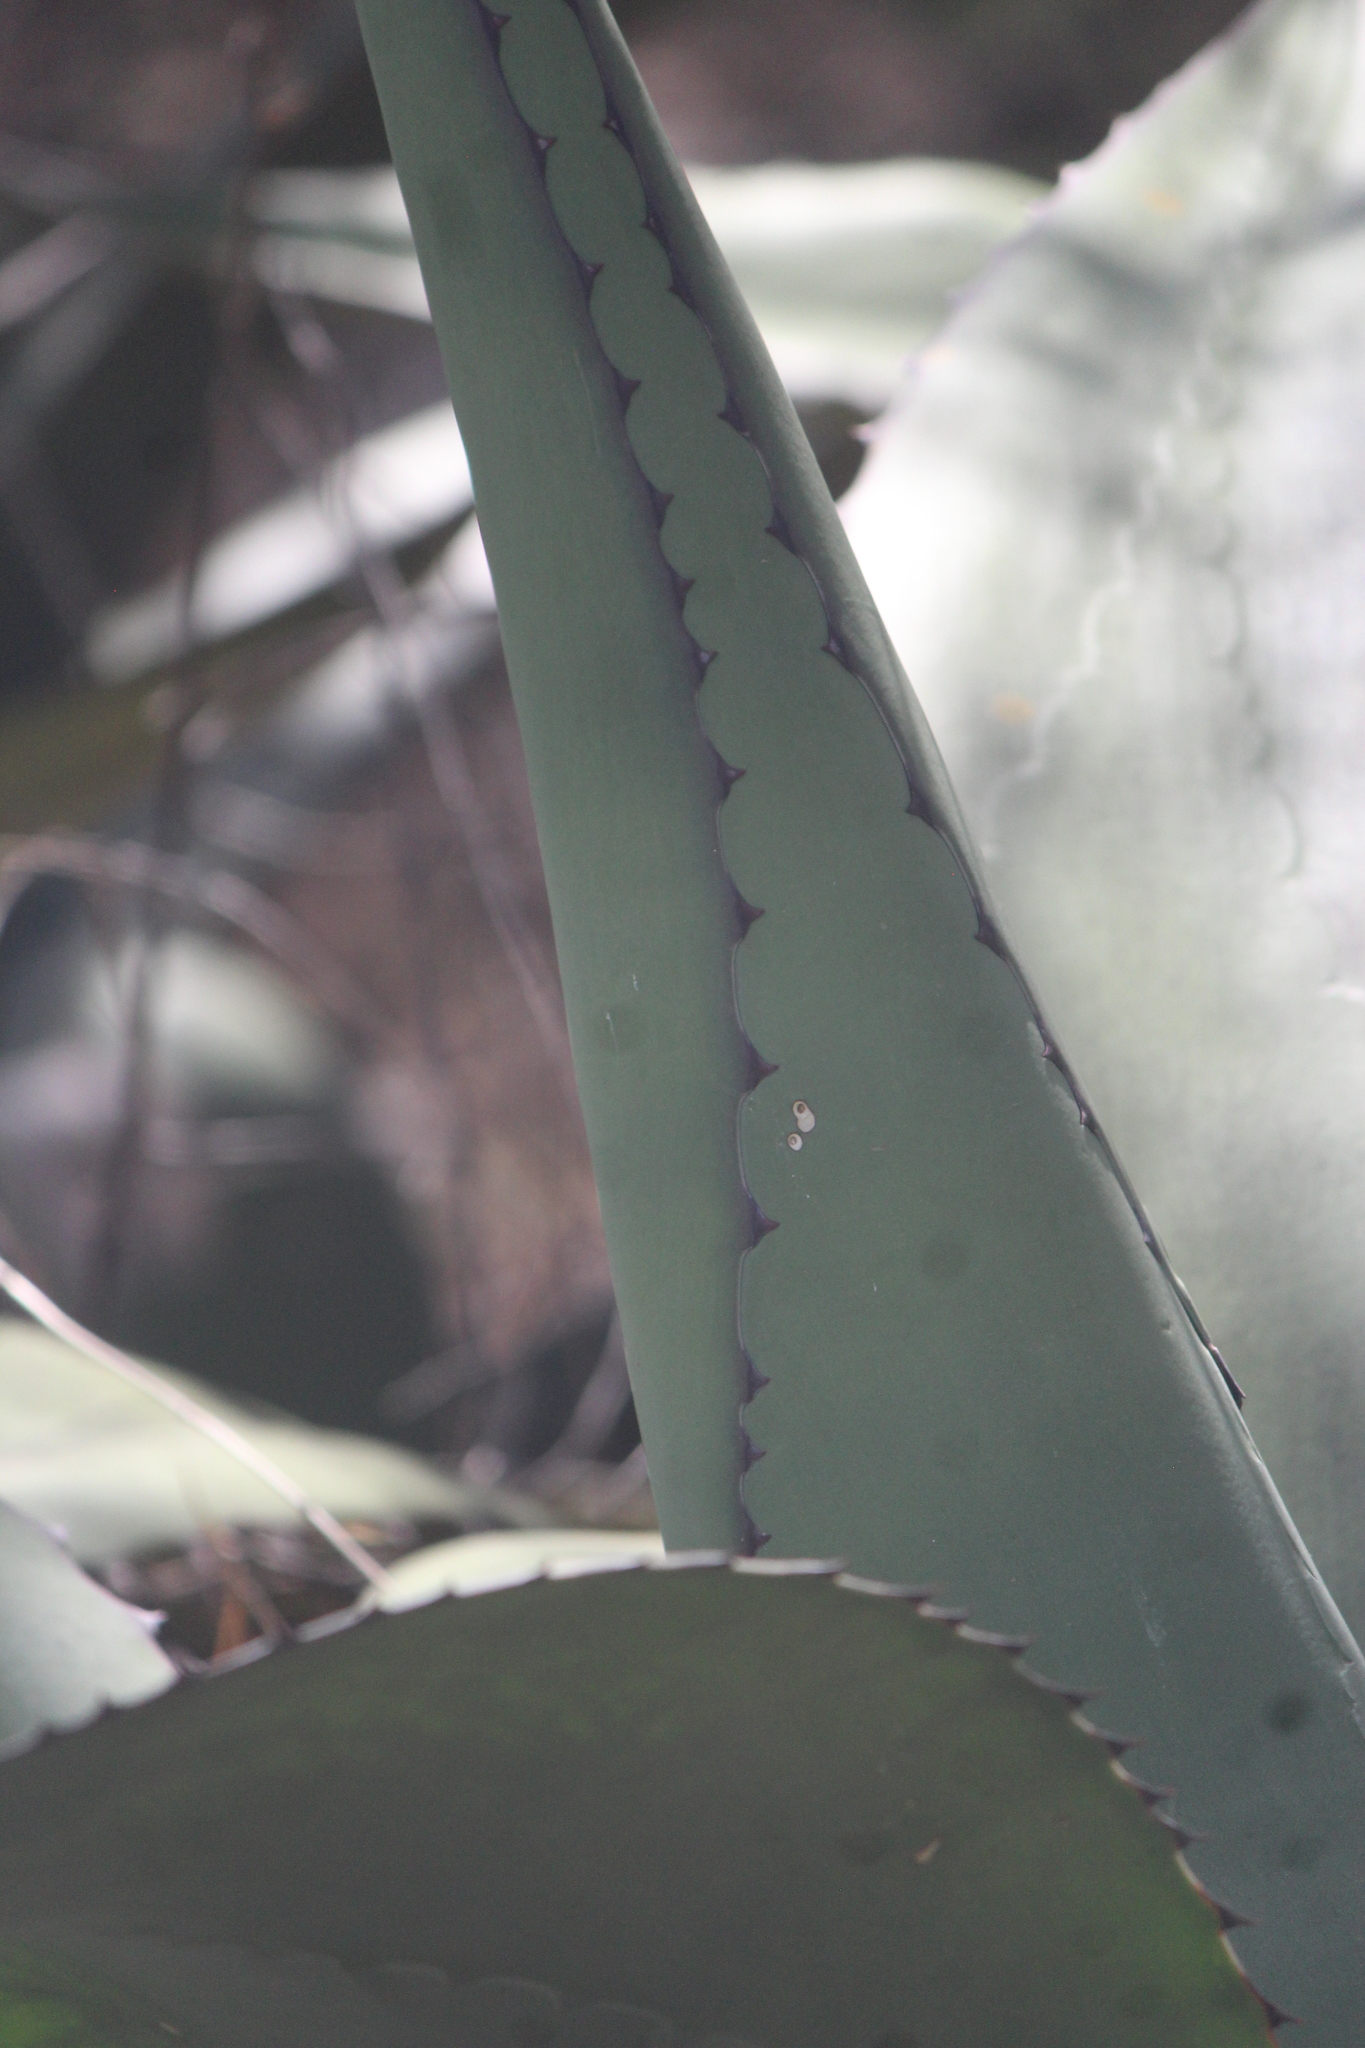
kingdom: Plantae
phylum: Tracheophyta
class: Liliopsida
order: Asparagales
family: Asparagaceae
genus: Agave
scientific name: Agave salmiana
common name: Pulque agave
